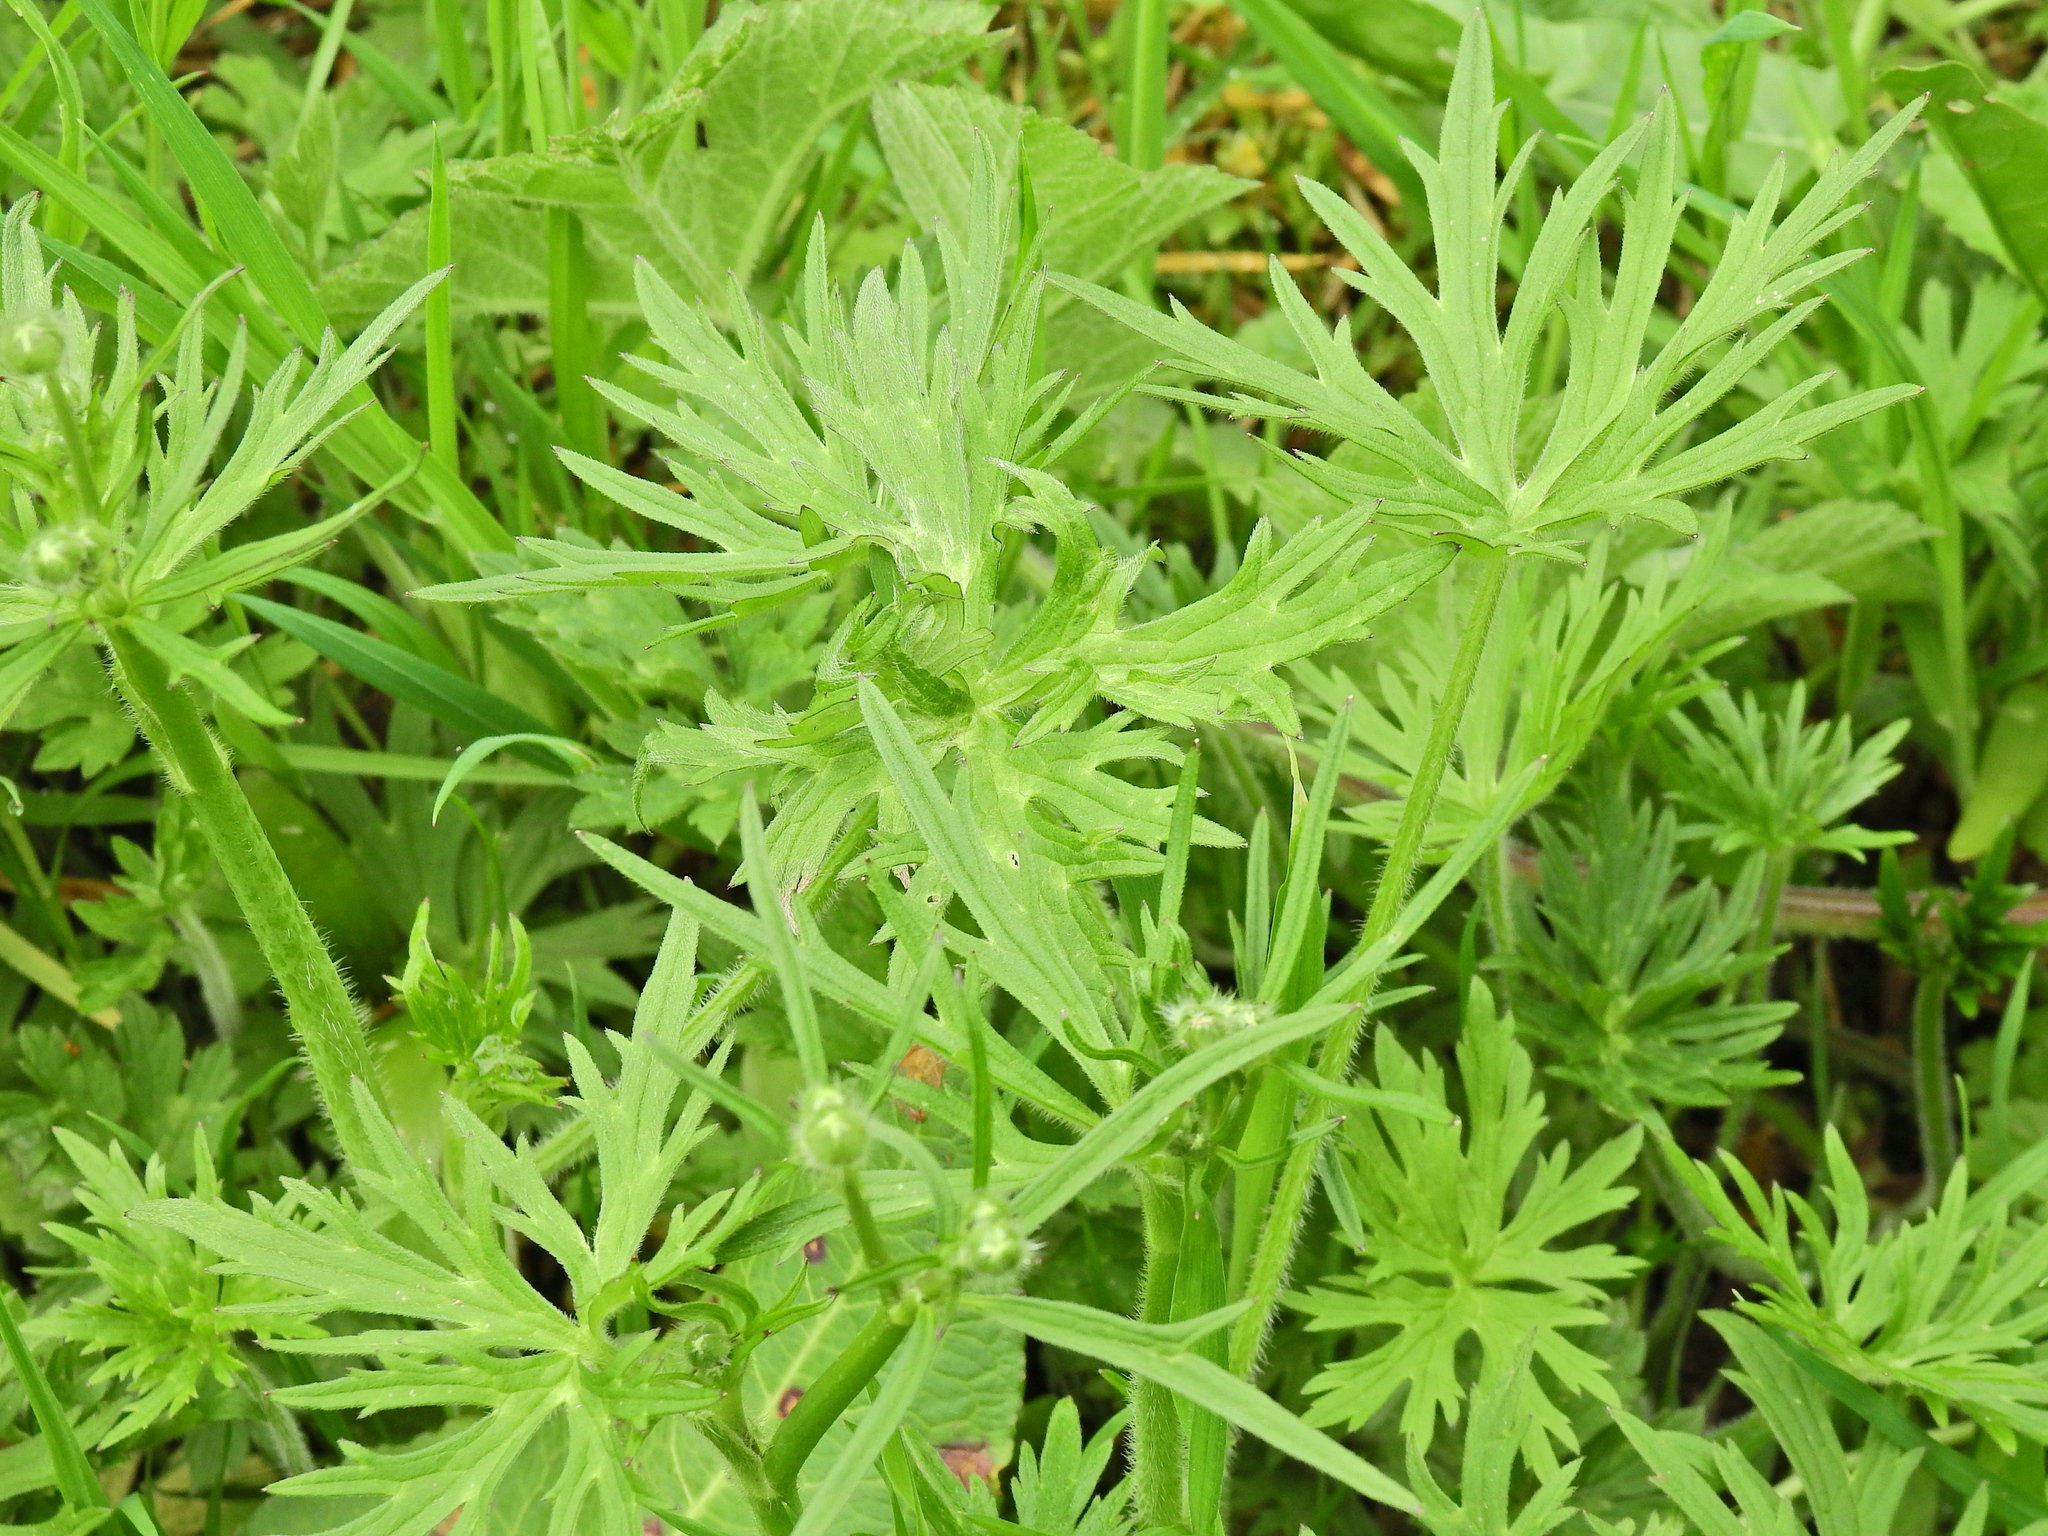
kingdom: Plantae
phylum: Tracheophyta
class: Magnoliopsida
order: Ranunculales
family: Ranunculaceae
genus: Ranunculus
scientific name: Ranunculus acris
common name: Meadow buttercup
